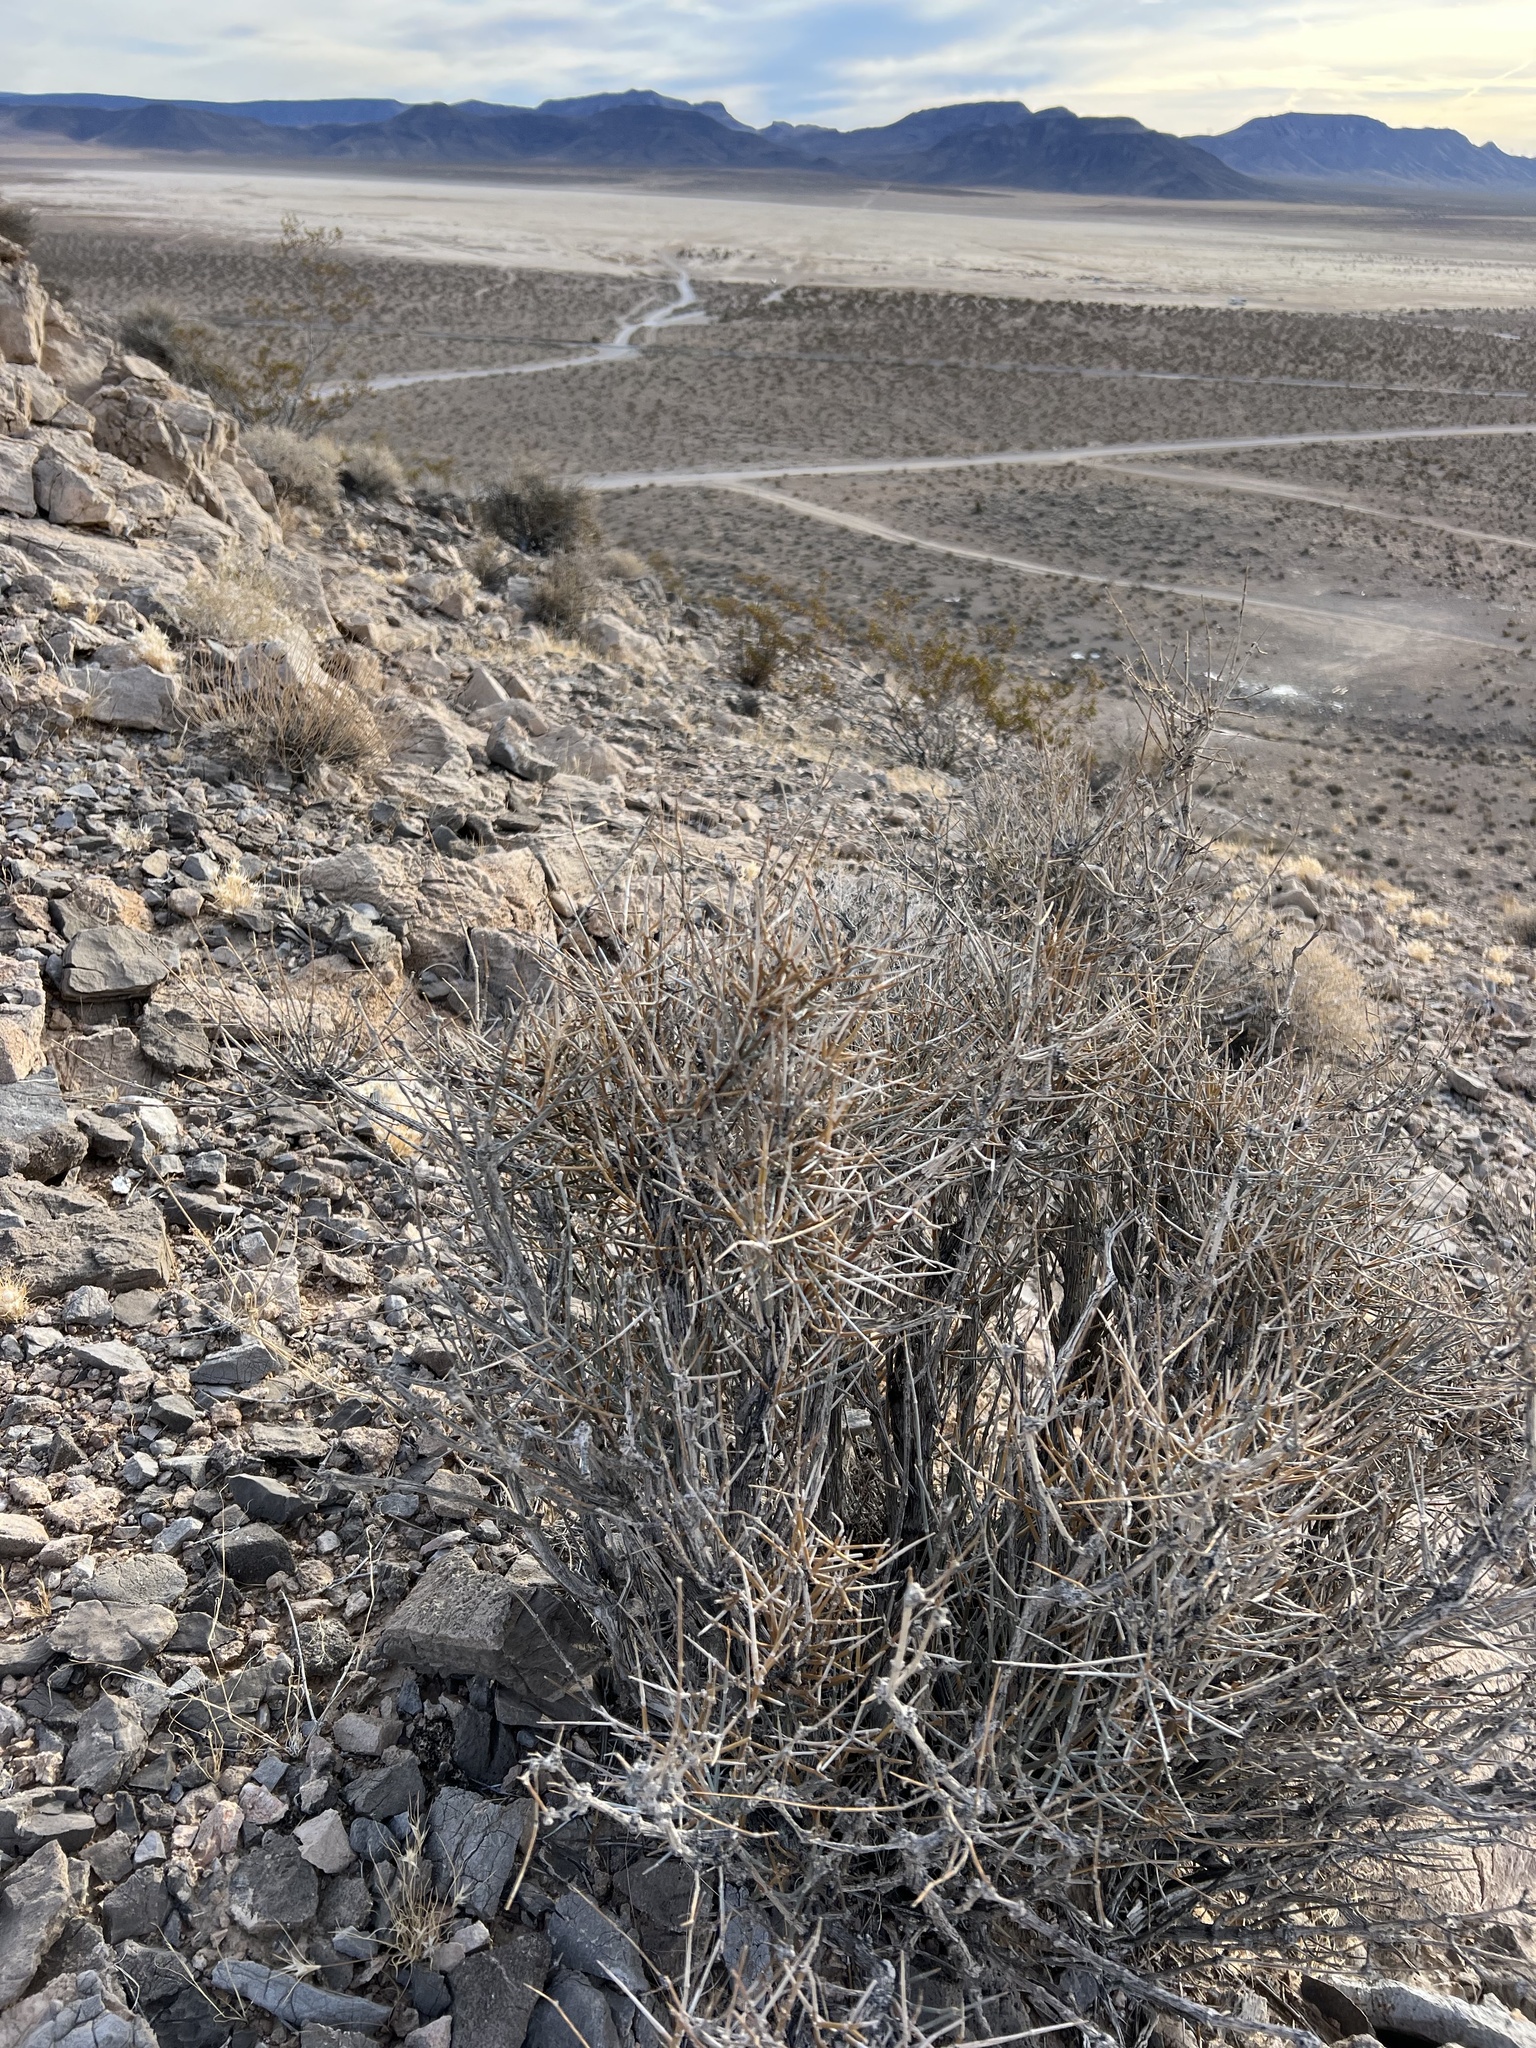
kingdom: Plantae
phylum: Tracheophyta
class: Gnetopsida
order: Ephedrales
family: Ephedraceae
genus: Ephedra
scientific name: Ephedra nevadensis
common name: Gray ephedra
